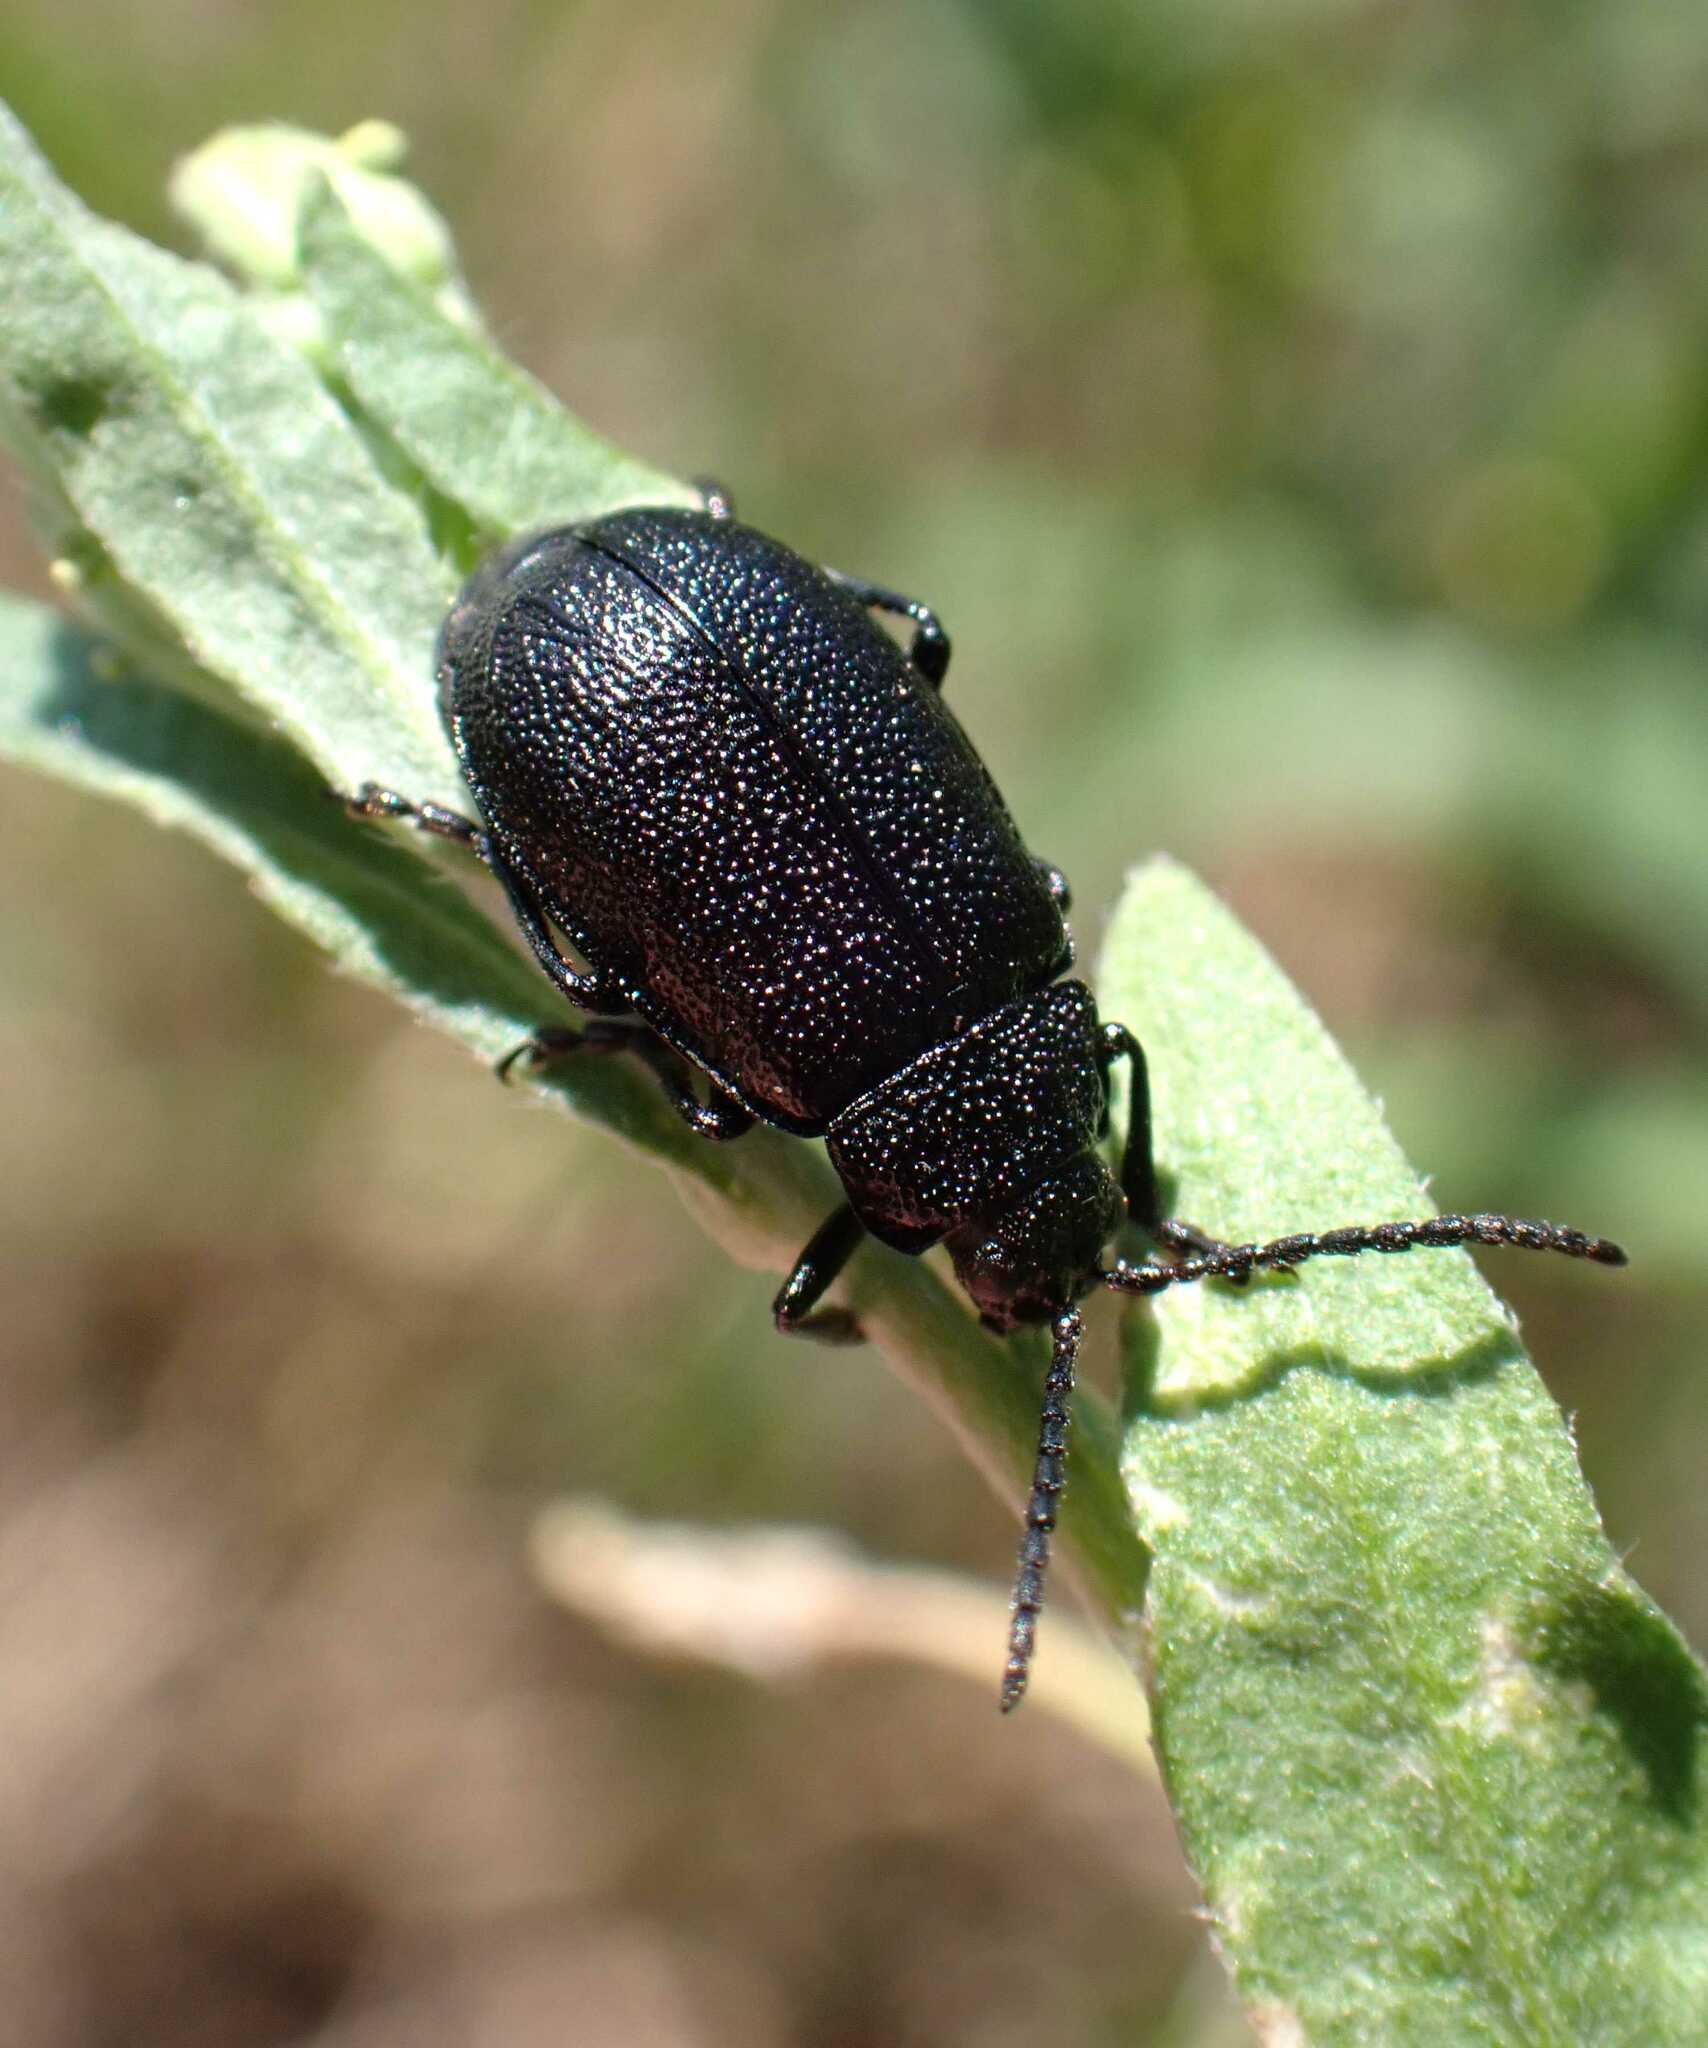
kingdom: Animalia
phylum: Arthropoda
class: Insecta
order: Coleoptera
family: Chrysomelidae
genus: Galeruca
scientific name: Galeruca tanaceti
